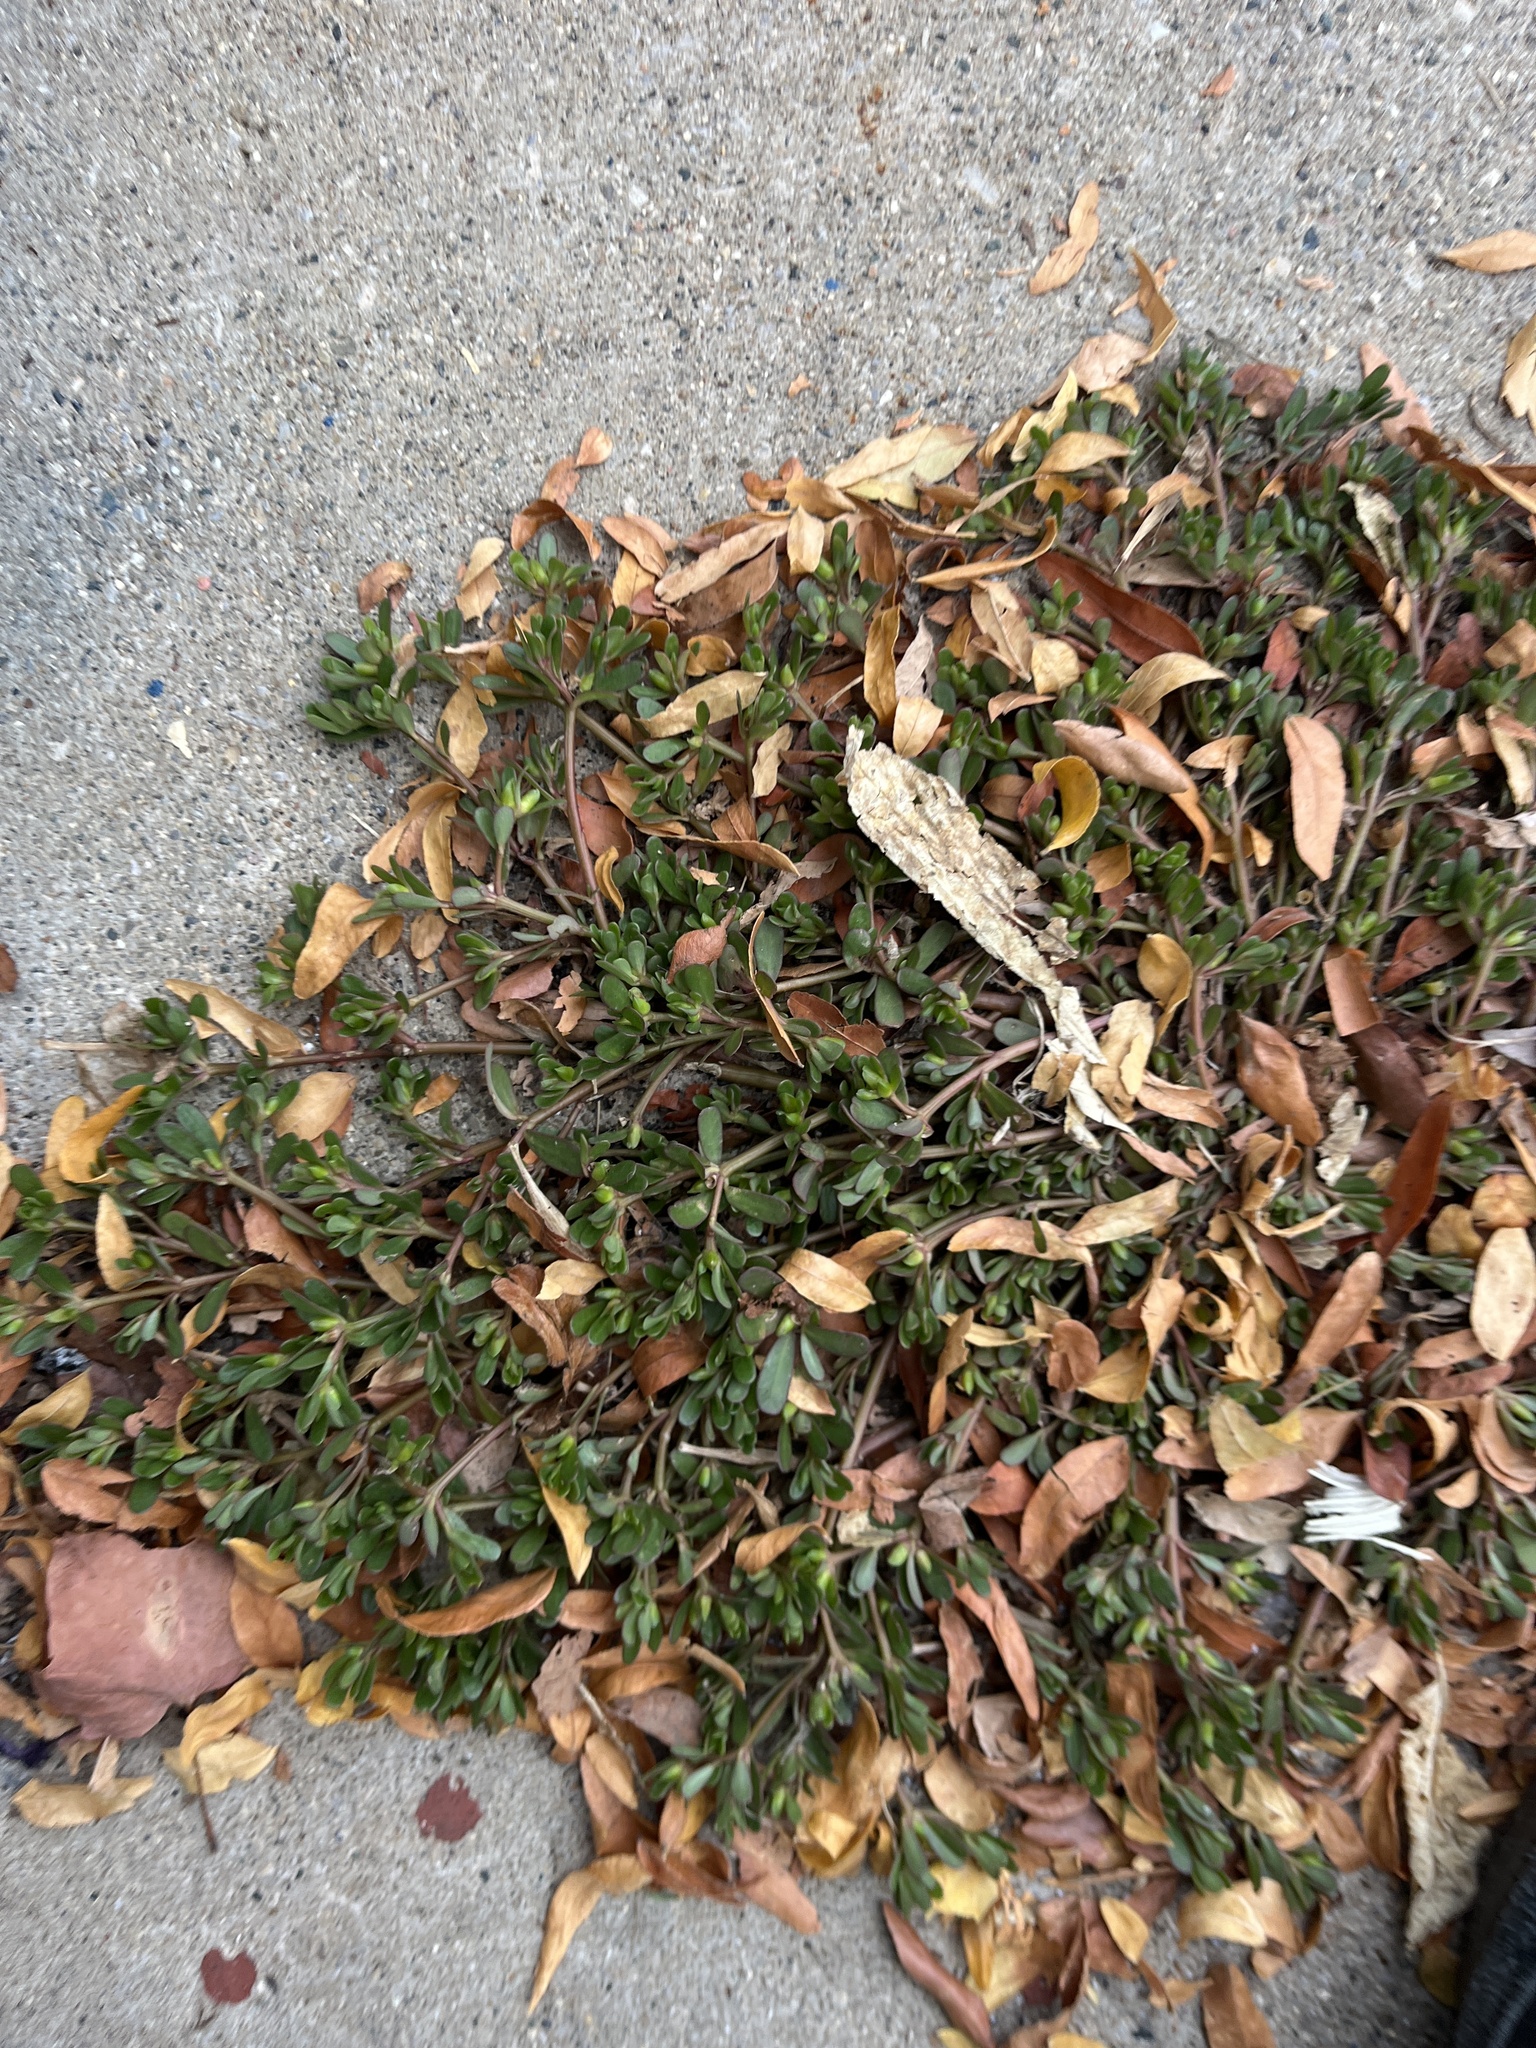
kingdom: Plantae
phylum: Tracheophyta
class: Magnoliopsida
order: Caryophyllales
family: Portulacaceae
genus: Portulaca
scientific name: Portulaca oleracea
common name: Common purslane
